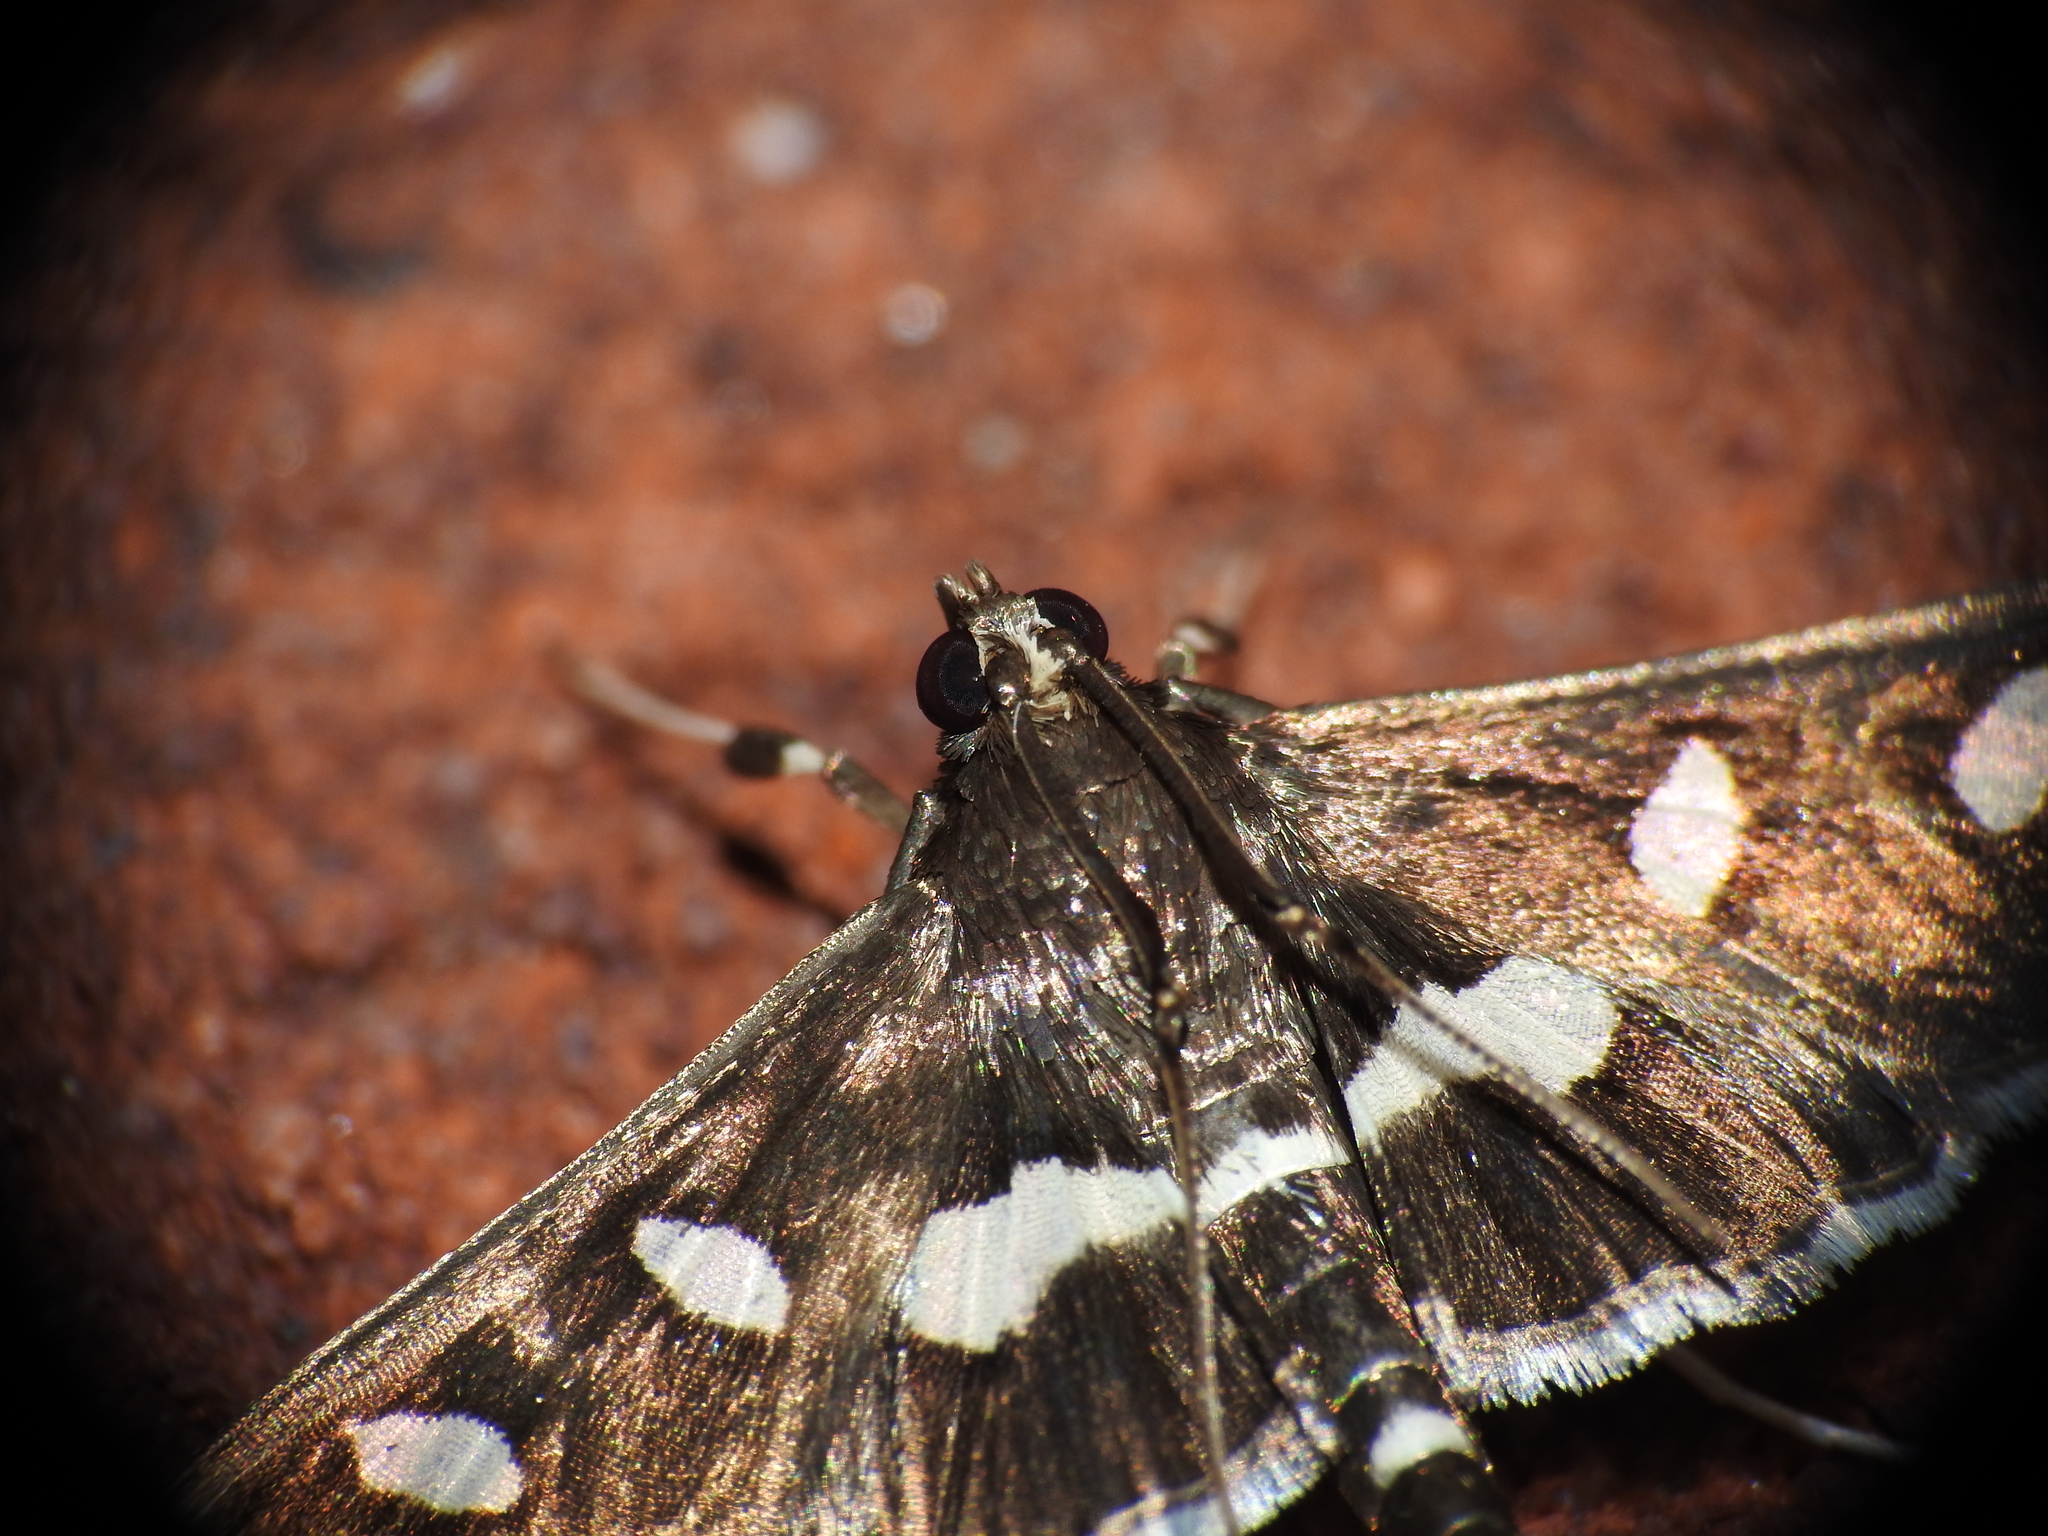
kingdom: Animalia
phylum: Arthropoda
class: Insecta
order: Lepidoptera
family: Crambidae
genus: Desmia
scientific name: Desmia
